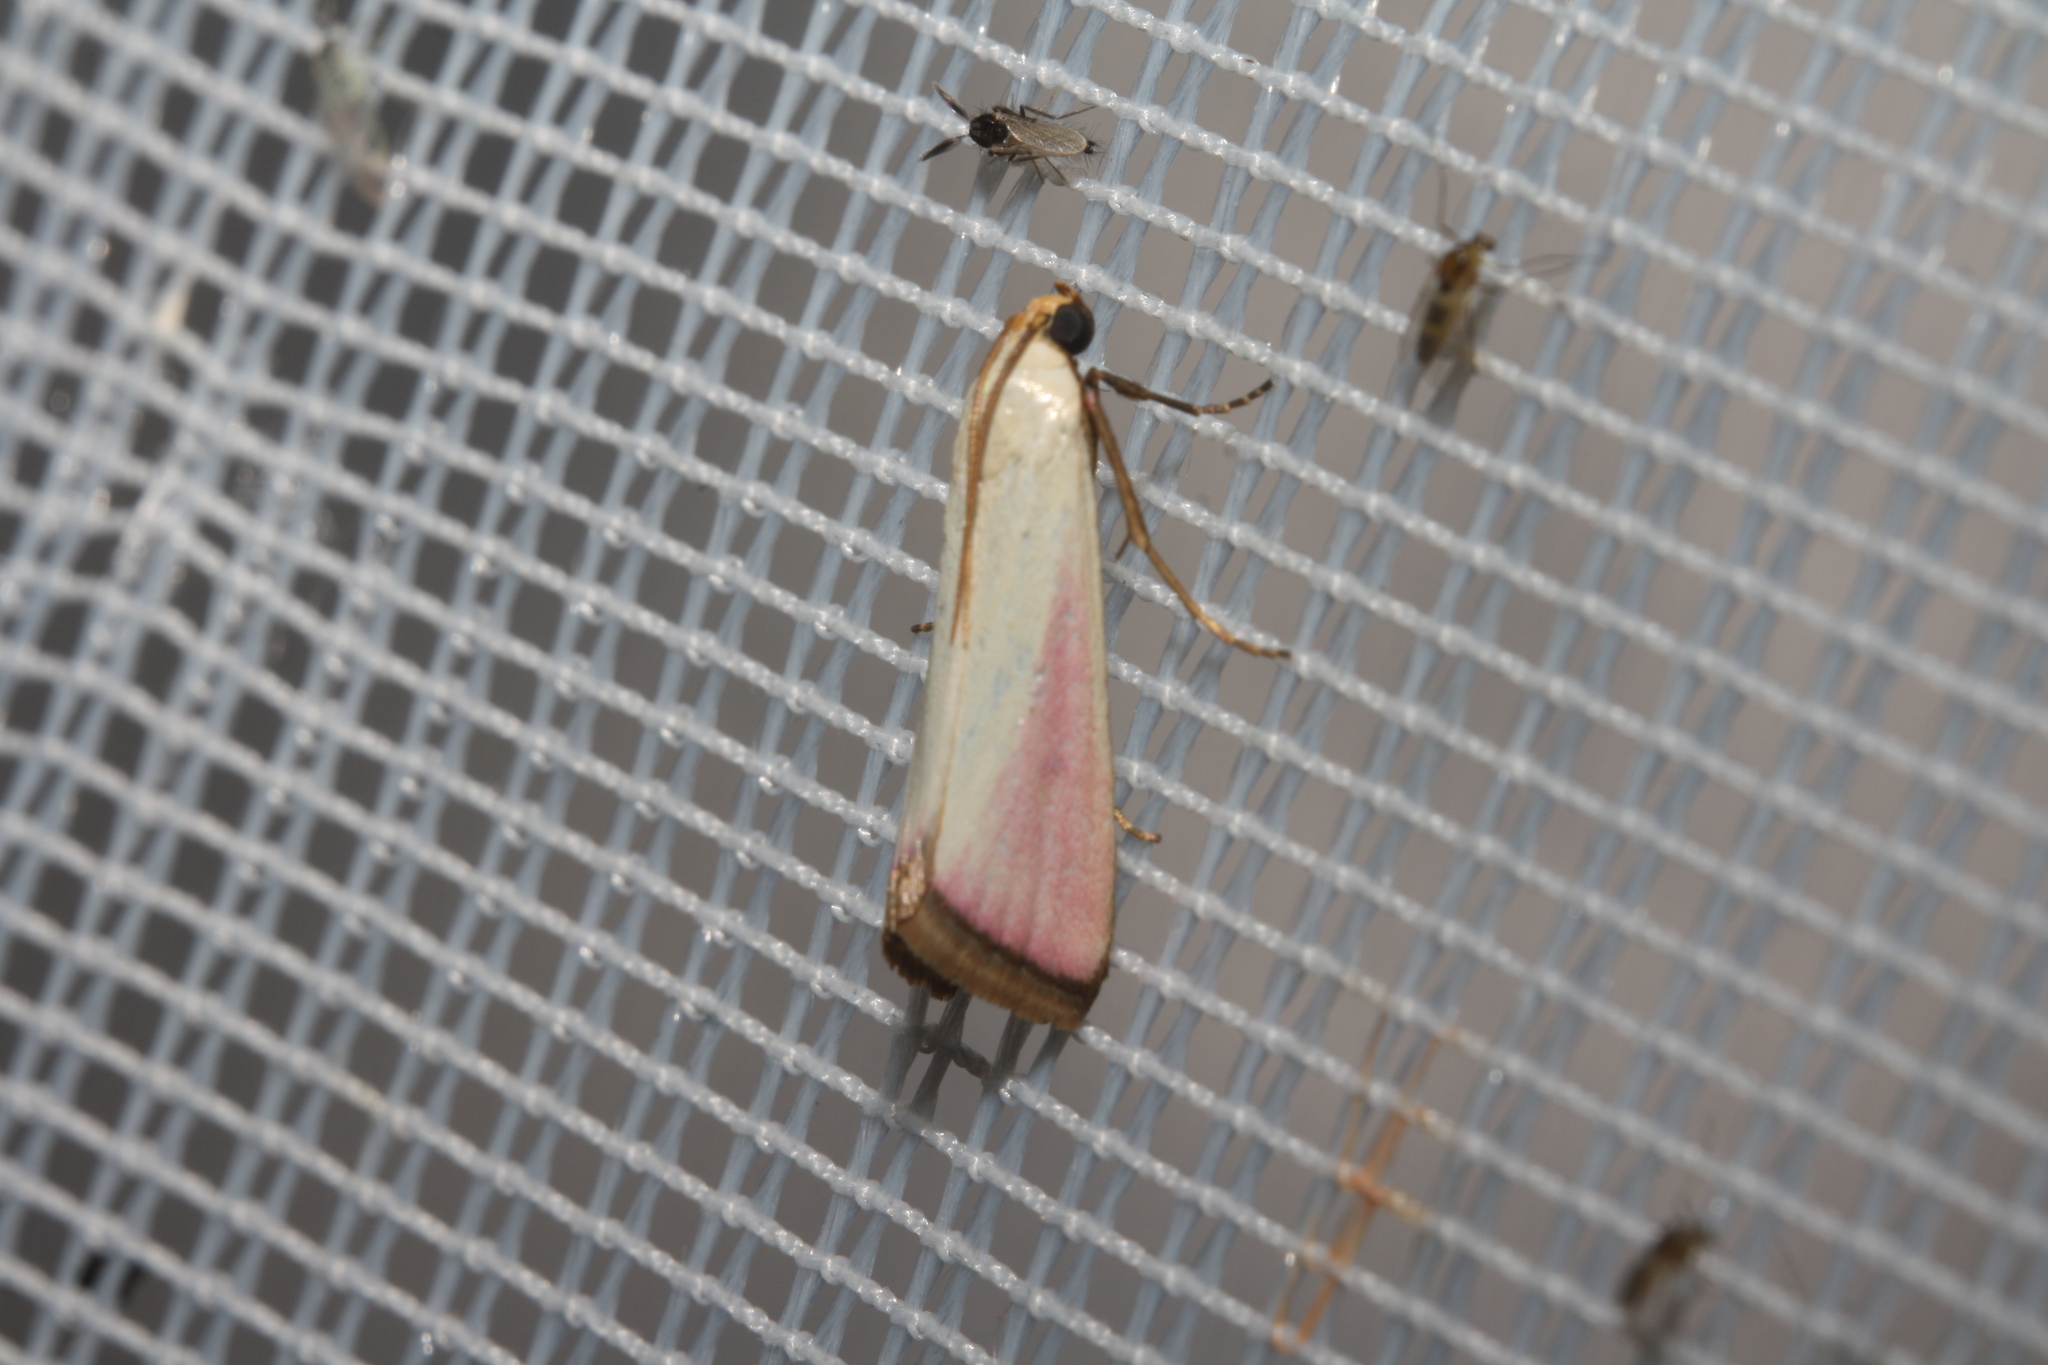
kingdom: Animalia
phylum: Arthropoda
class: Insecta
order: Lepidoptera
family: Pyralidae
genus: Eurhodope
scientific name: Eurhodope rosella
